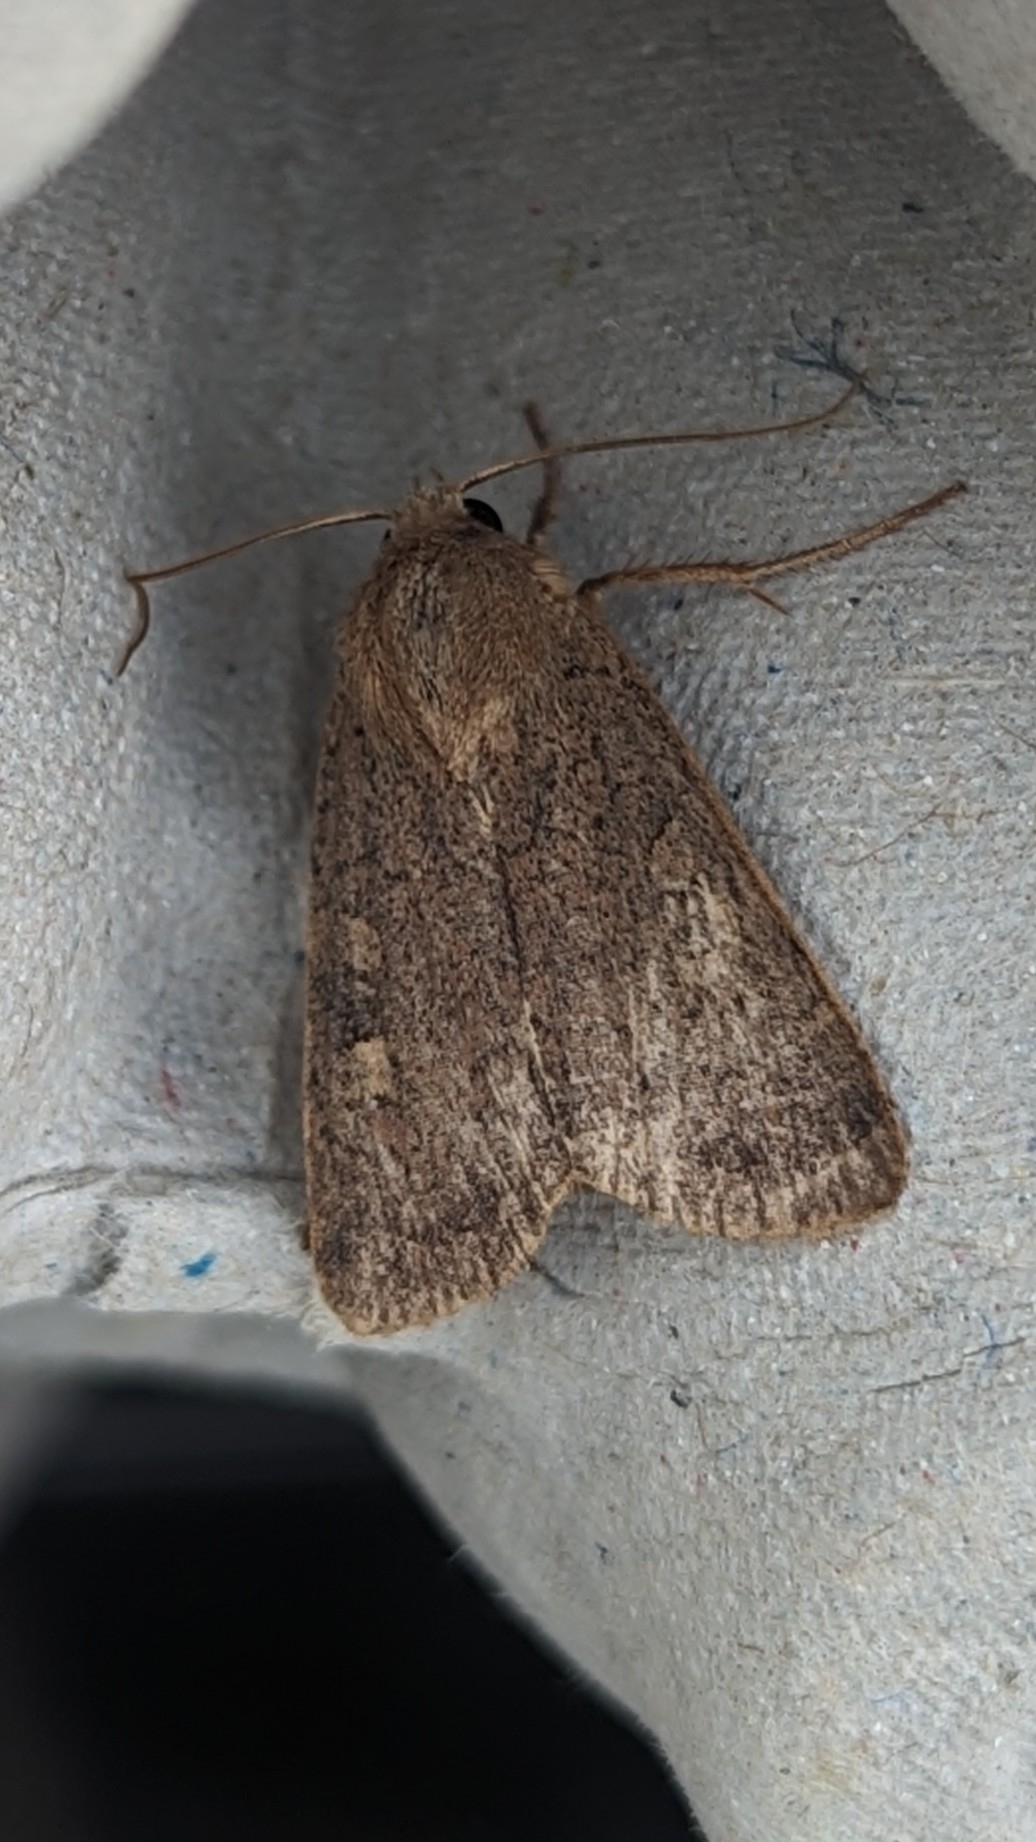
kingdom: Animalia
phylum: Arthropoda
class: Insecta
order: Lepidoptera
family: Noctuidae
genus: Xestia
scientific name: Xestia xanthographa
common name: Square-spot rustic
